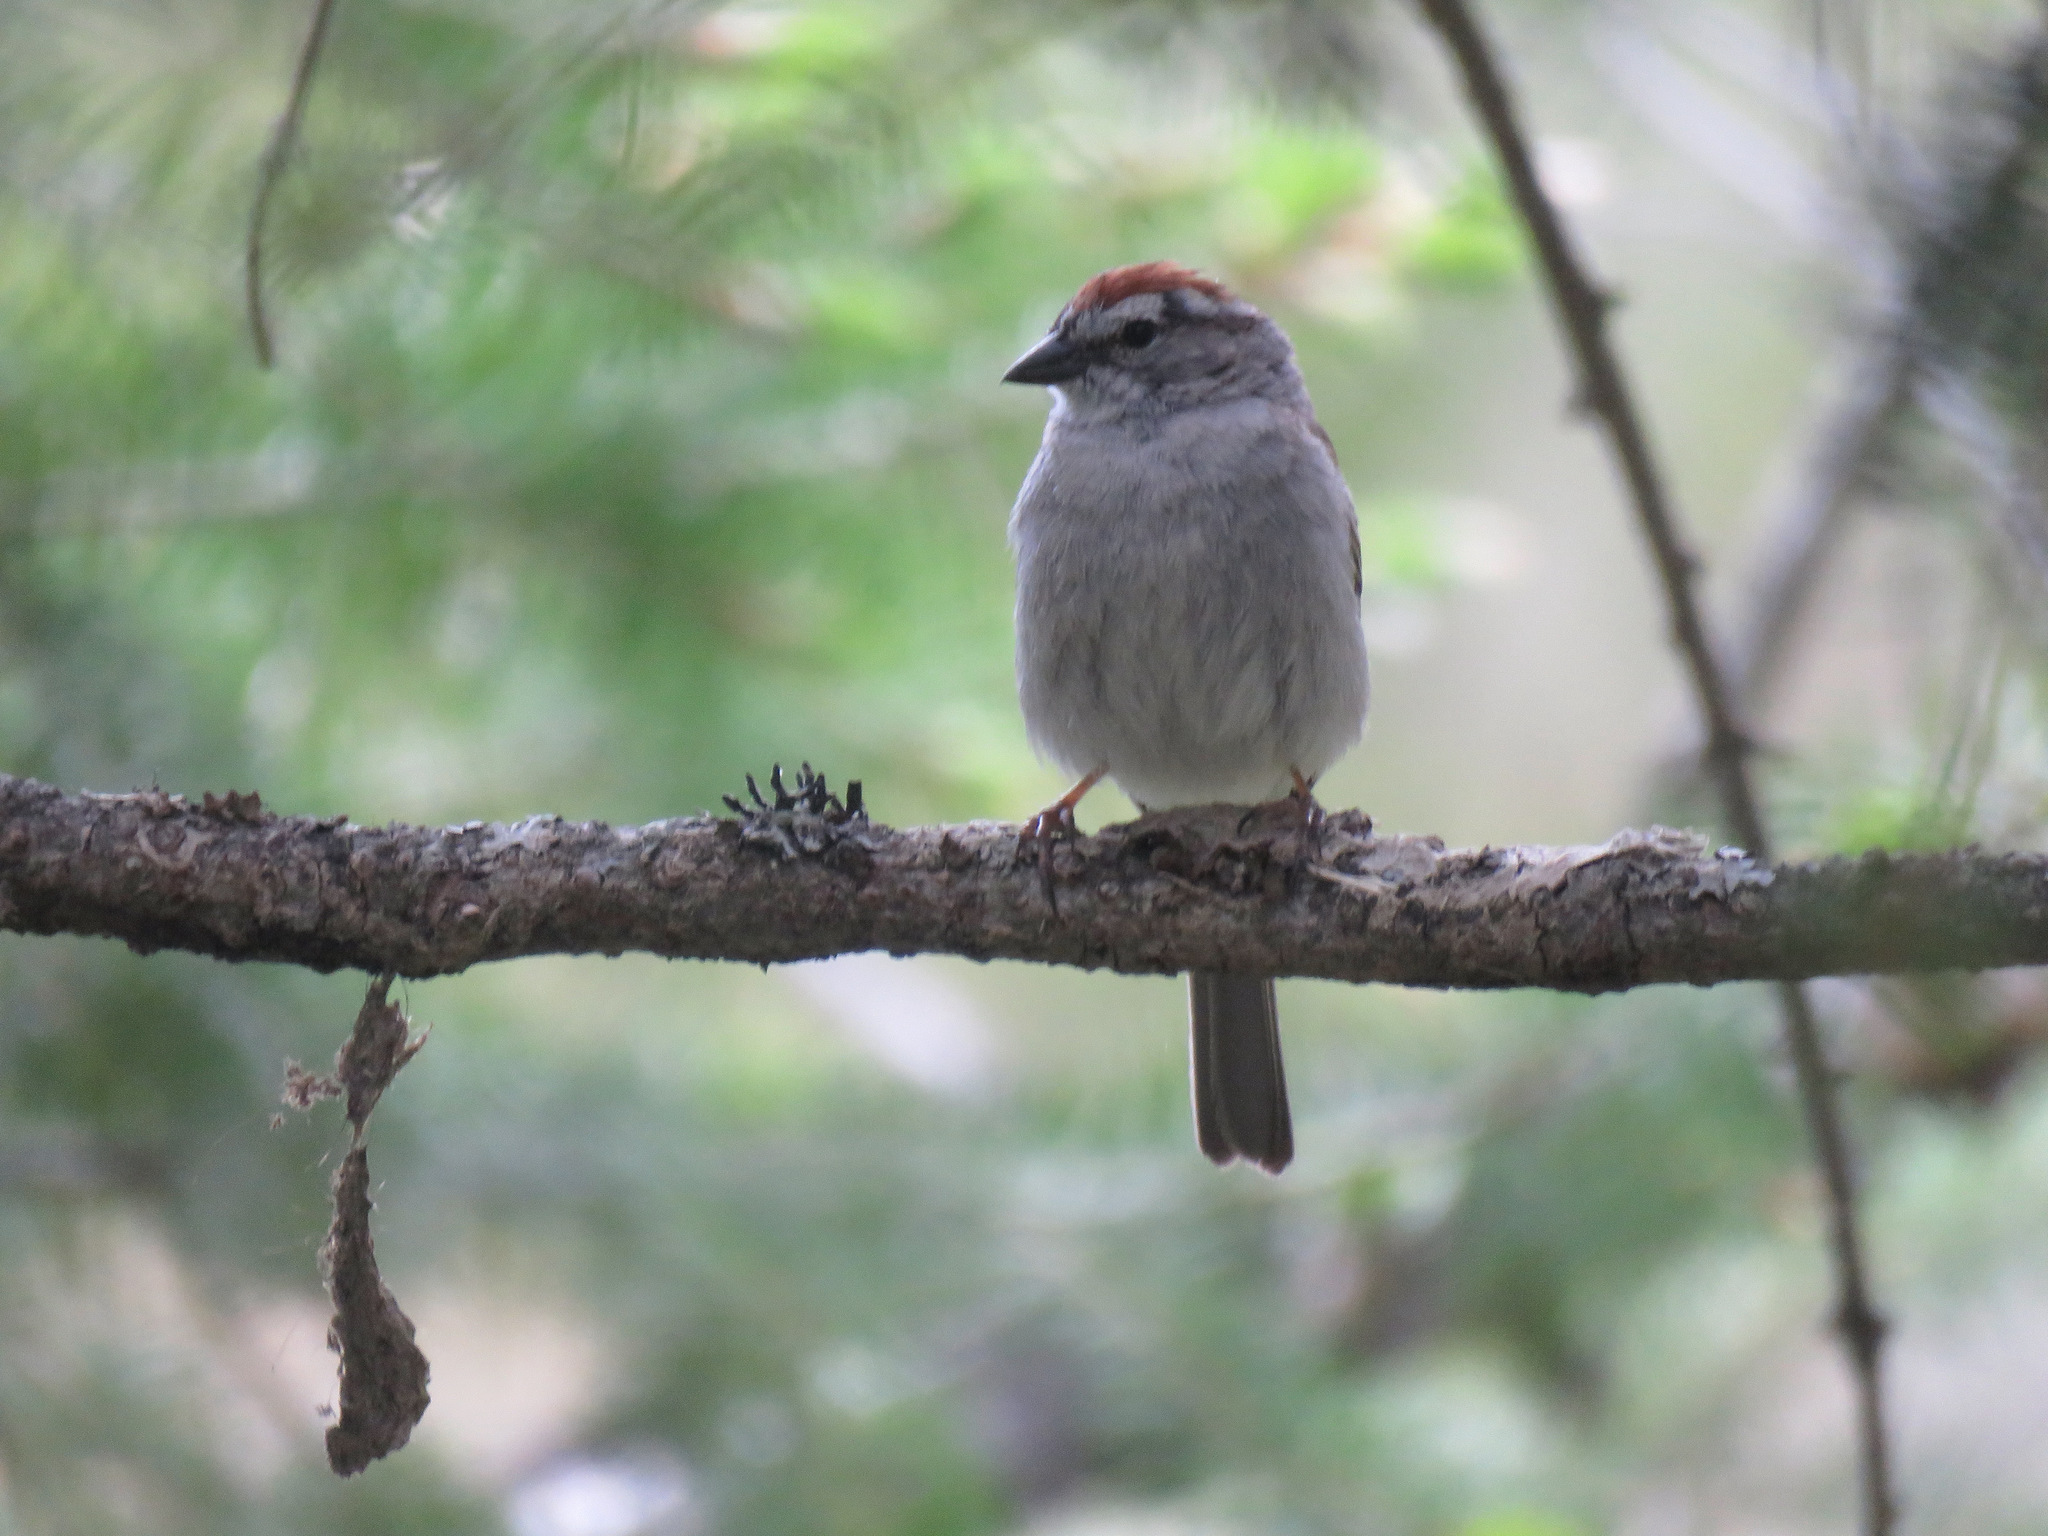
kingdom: Animalia
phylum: Chordata
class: Aves
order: Passeriformes
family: Passerellidae
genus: Spizella
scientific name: Spizella passerina
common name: Chipping sparrow
